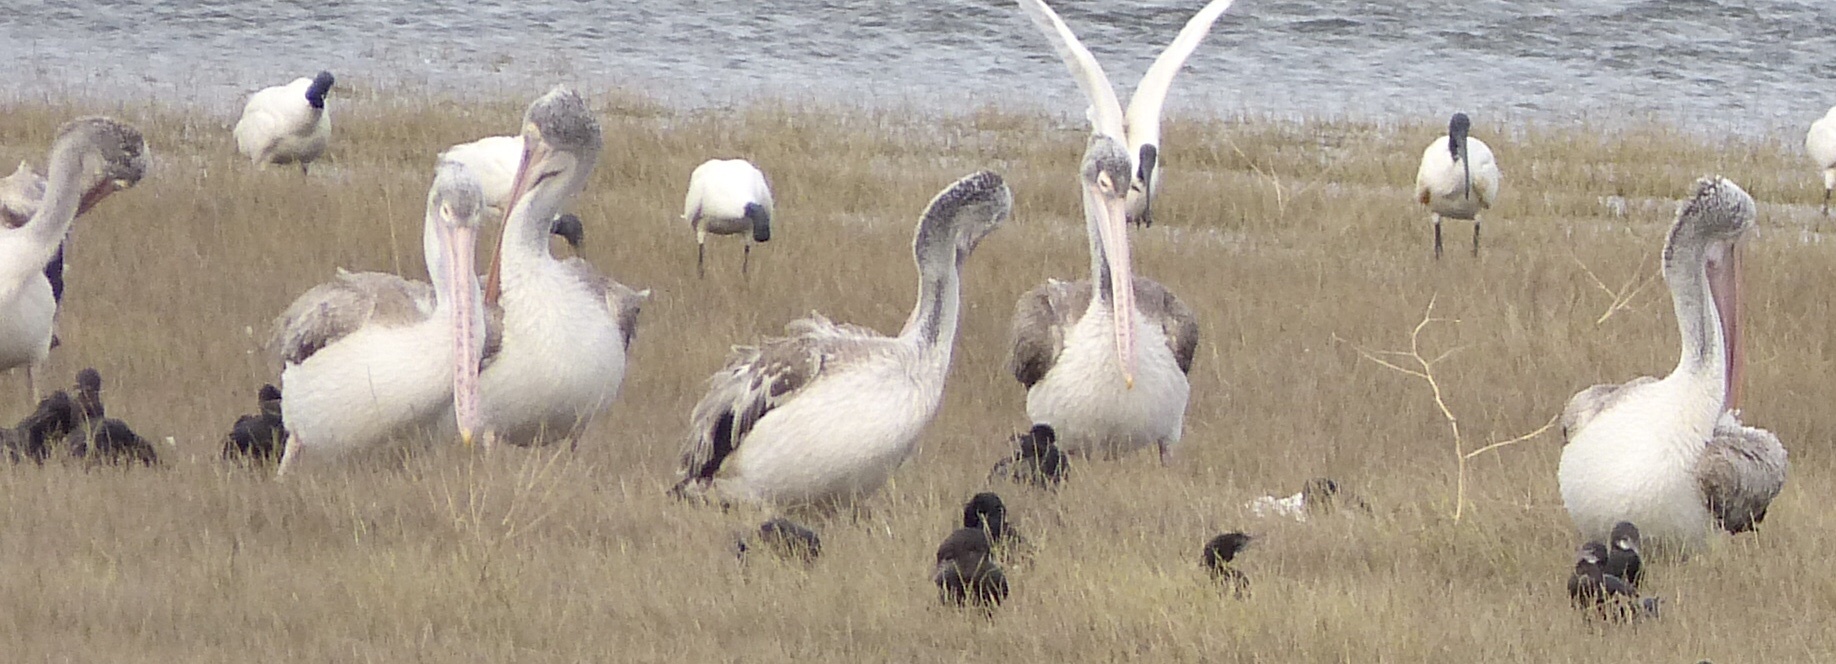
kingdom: Animalia
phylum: Chordata
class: Aves
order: Pelecaniformes
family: Pelecanidae
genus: Pelecanus
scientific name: Pelecanus philippensis
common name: Spot-billed pelican
